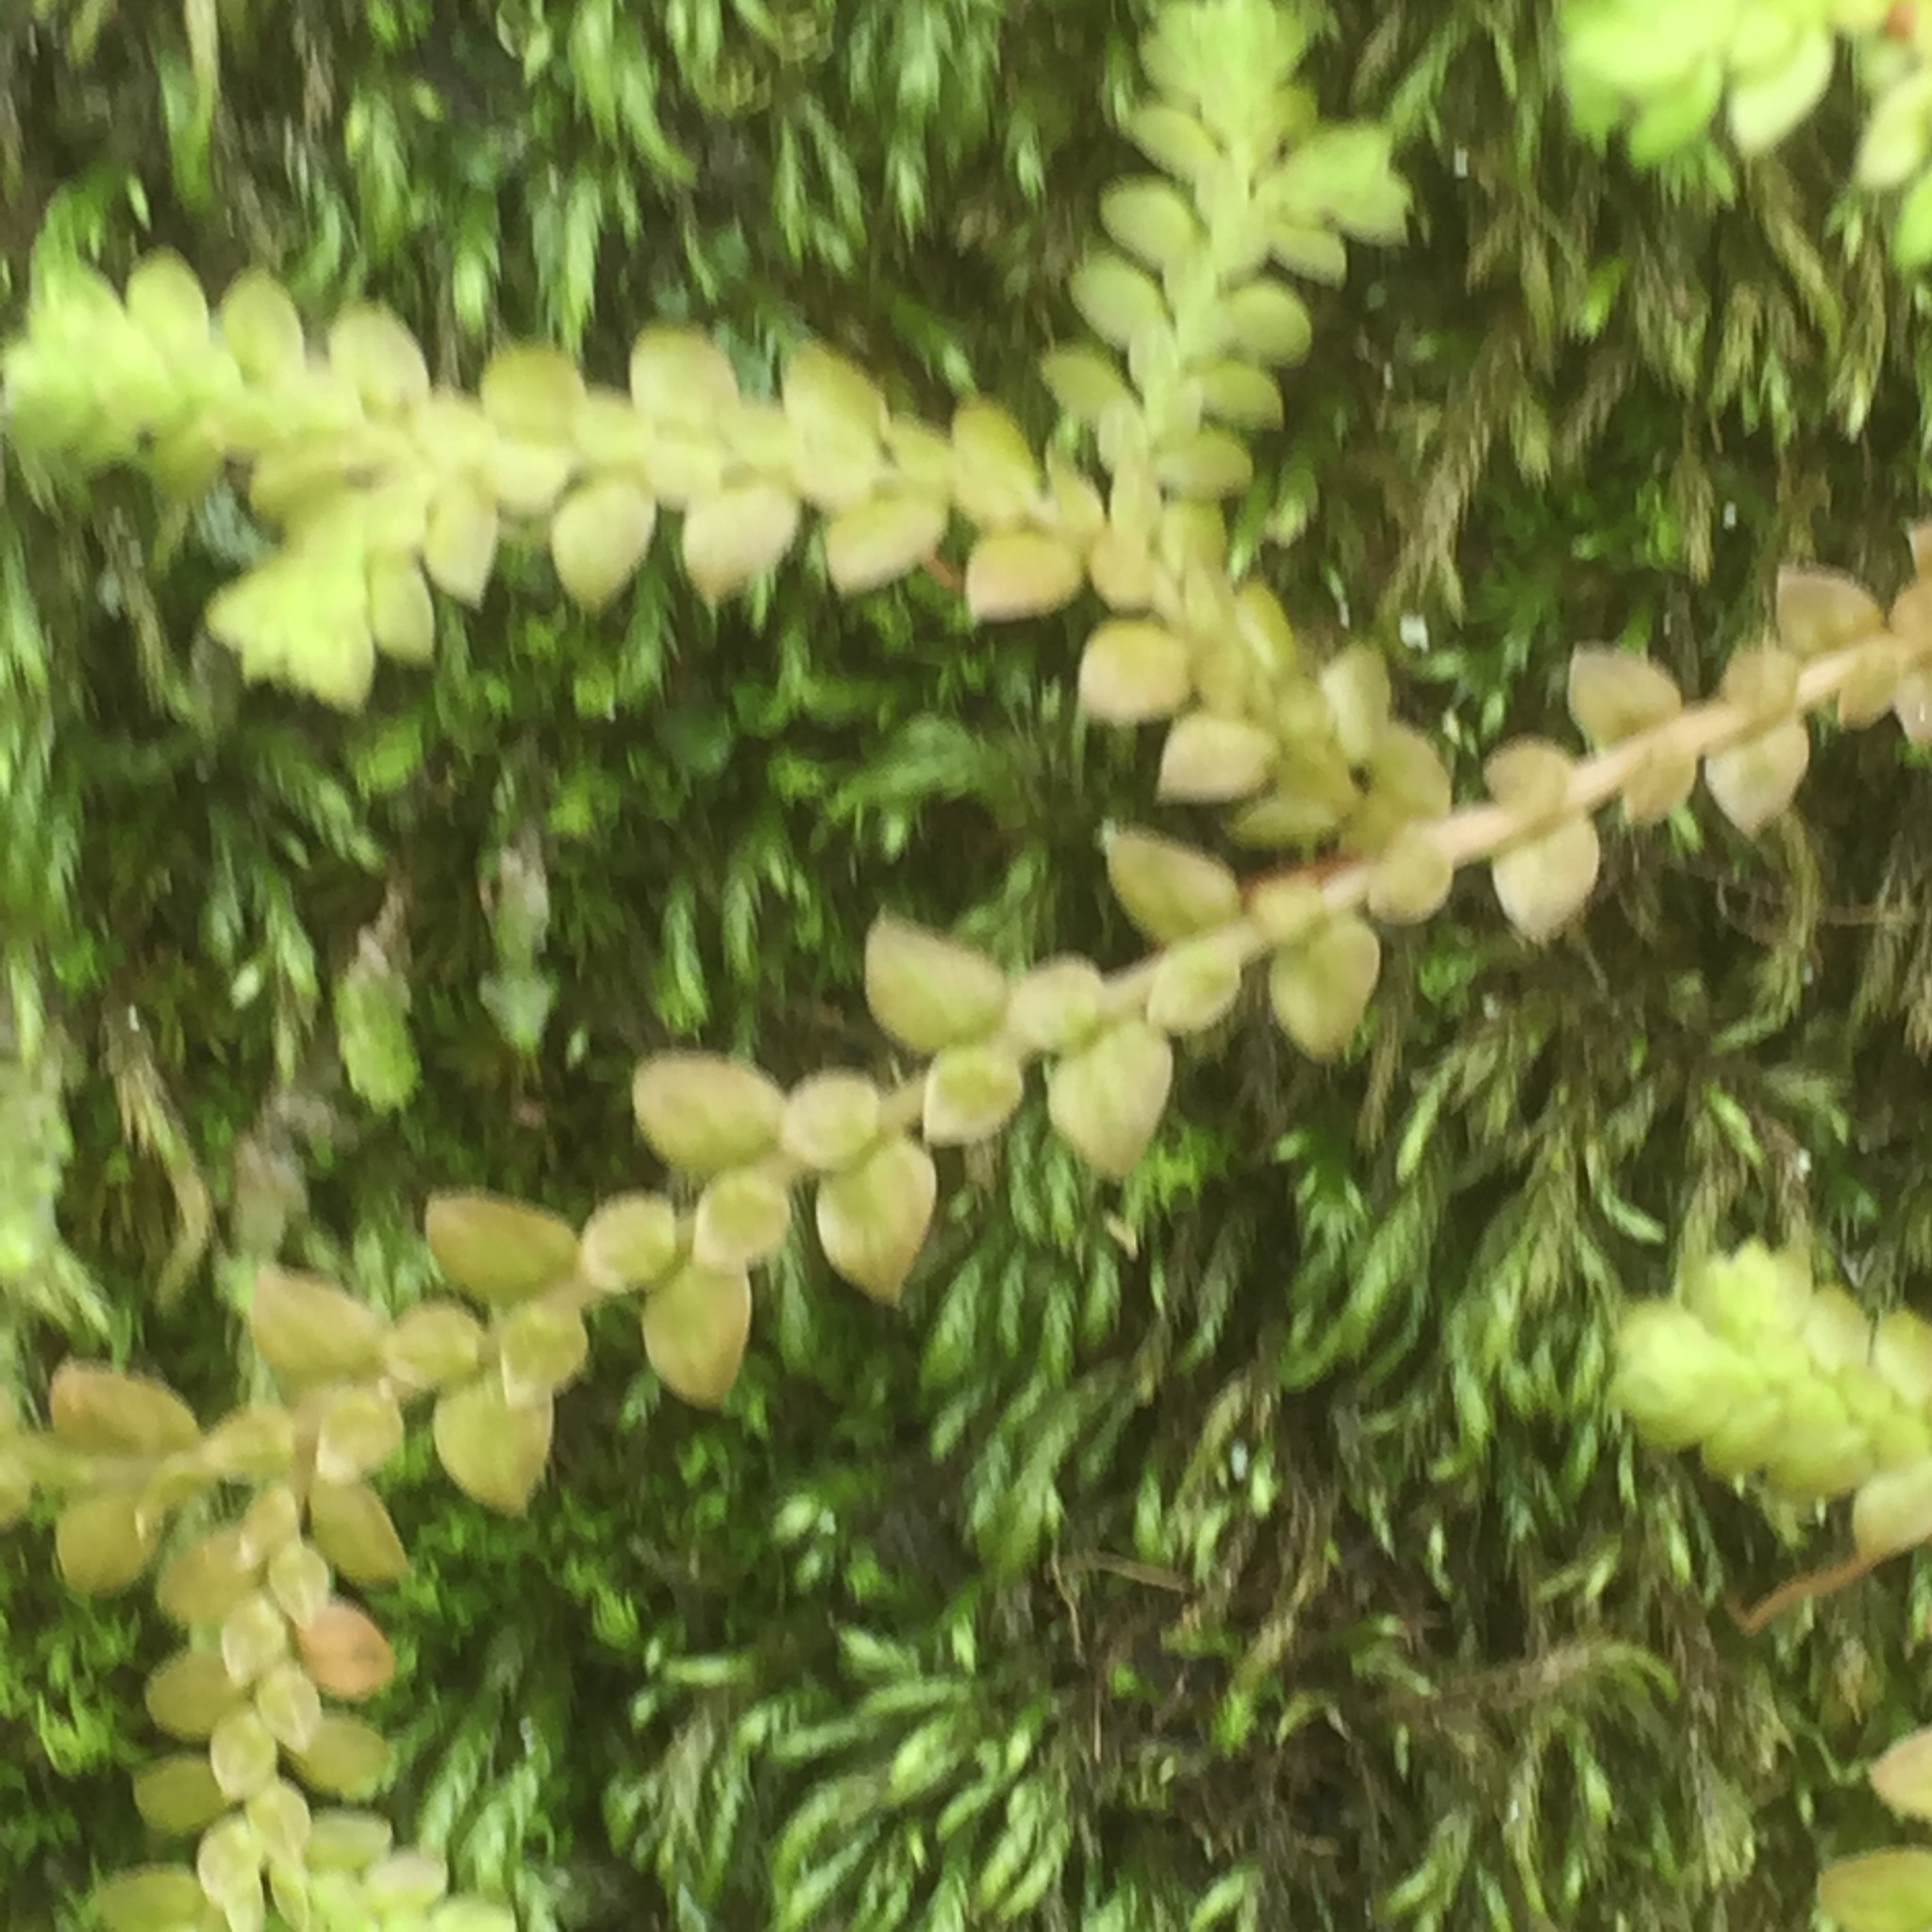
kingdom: Plantae
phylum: Tracheophyta
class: Lycopodiopsida
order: Selaginellales
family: Selaginellaceae
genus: Selaginella
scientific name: Selaginella denticulata
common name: Toothed-leaved clubmoss
